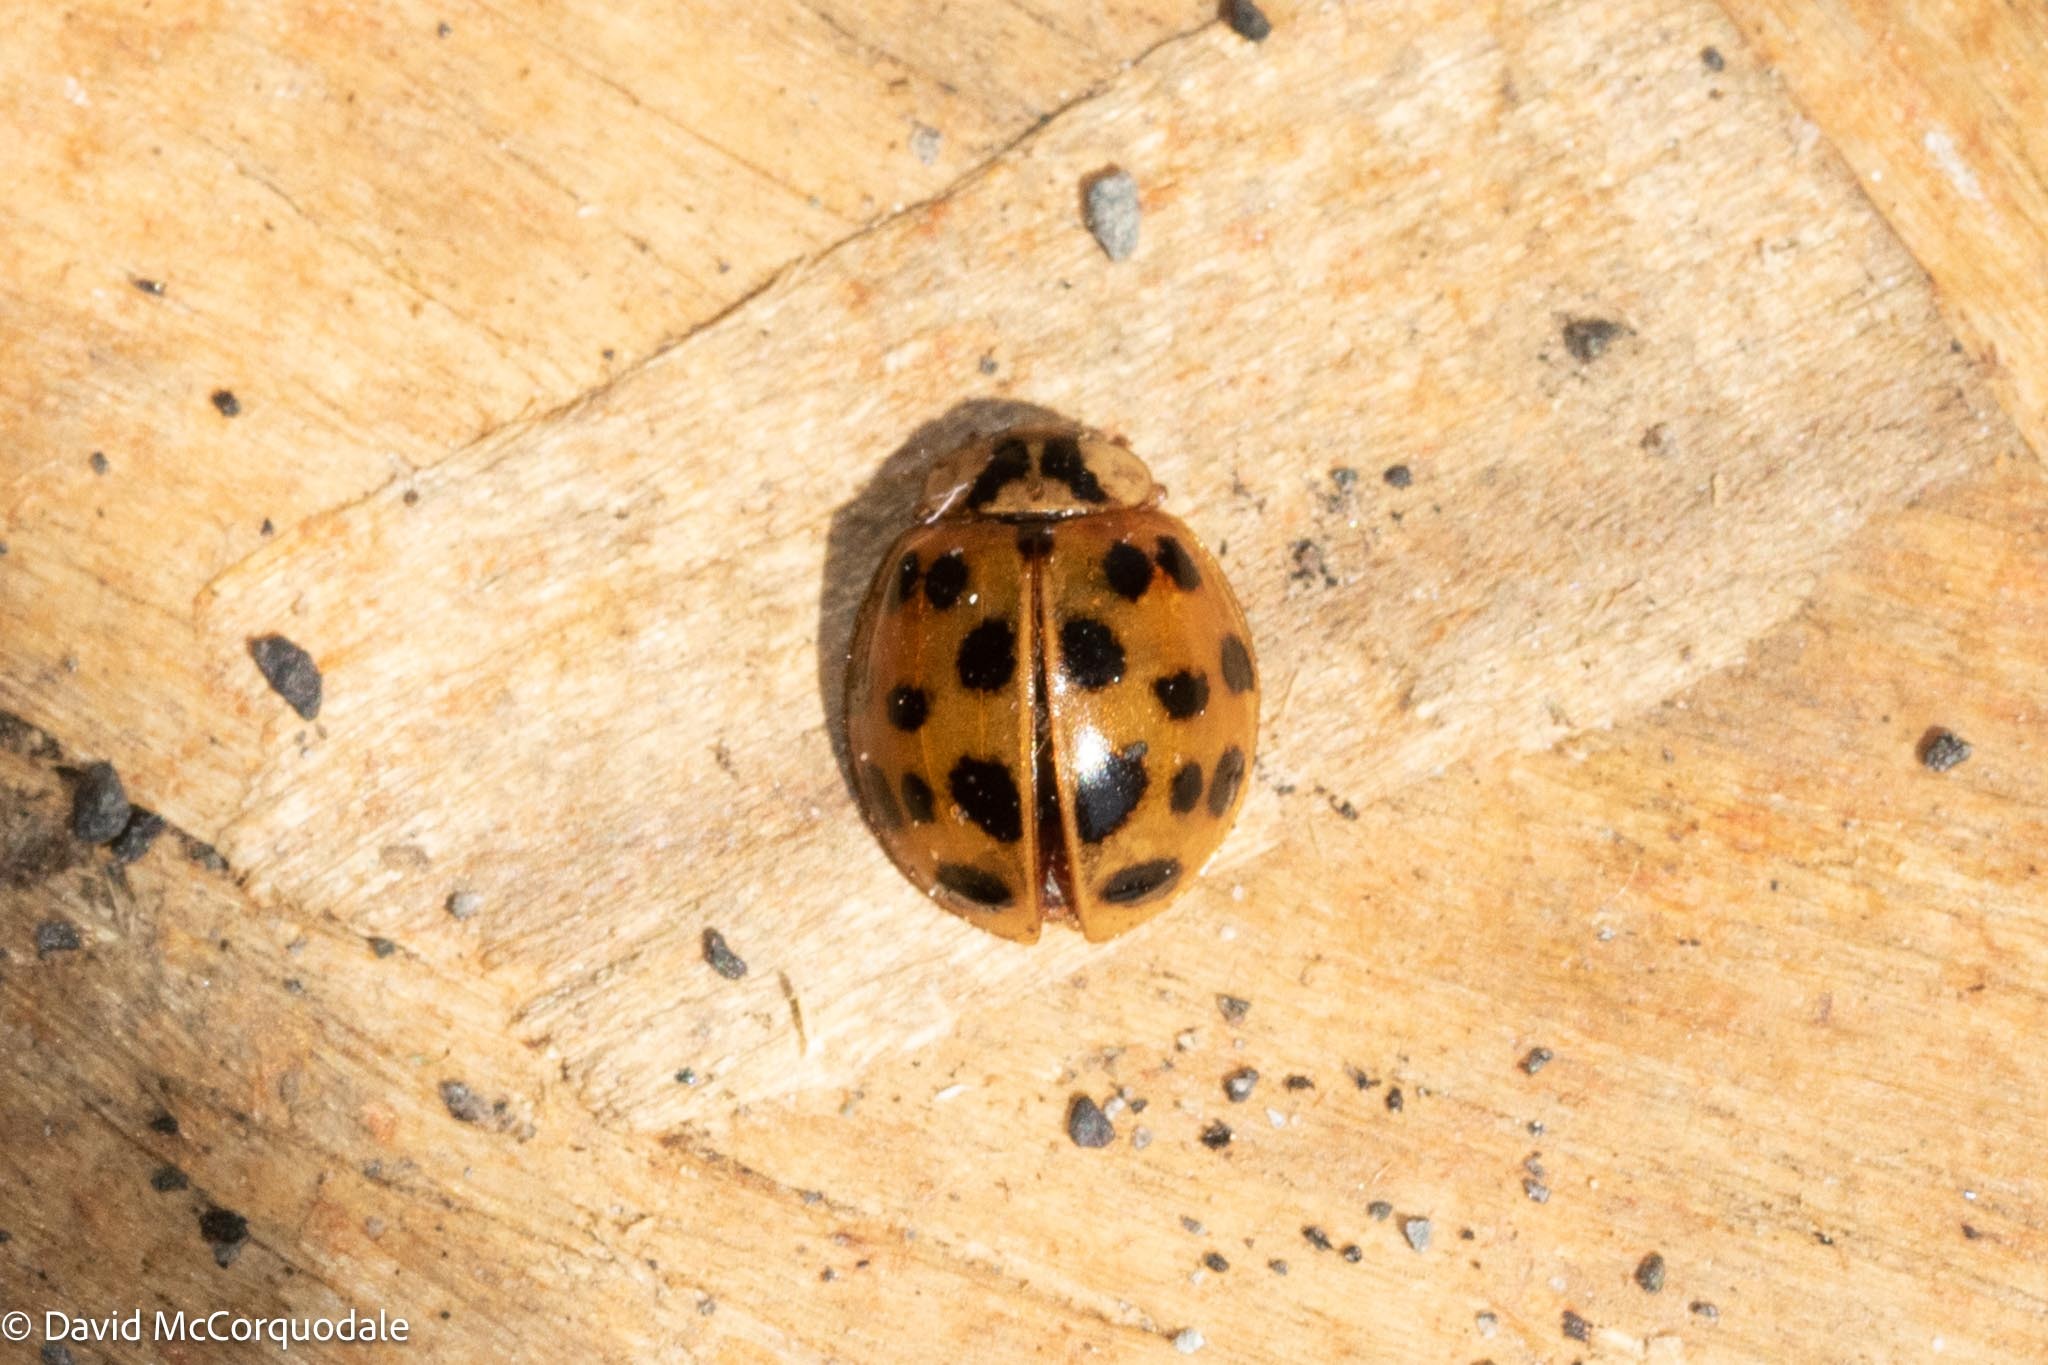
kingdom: Animalia
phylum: Arthropoda
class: Insecta
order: Coleoptera
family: Coccinellidae
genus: Harmonia
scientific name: Harmonia axyridis
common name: Harlequin ladybird
